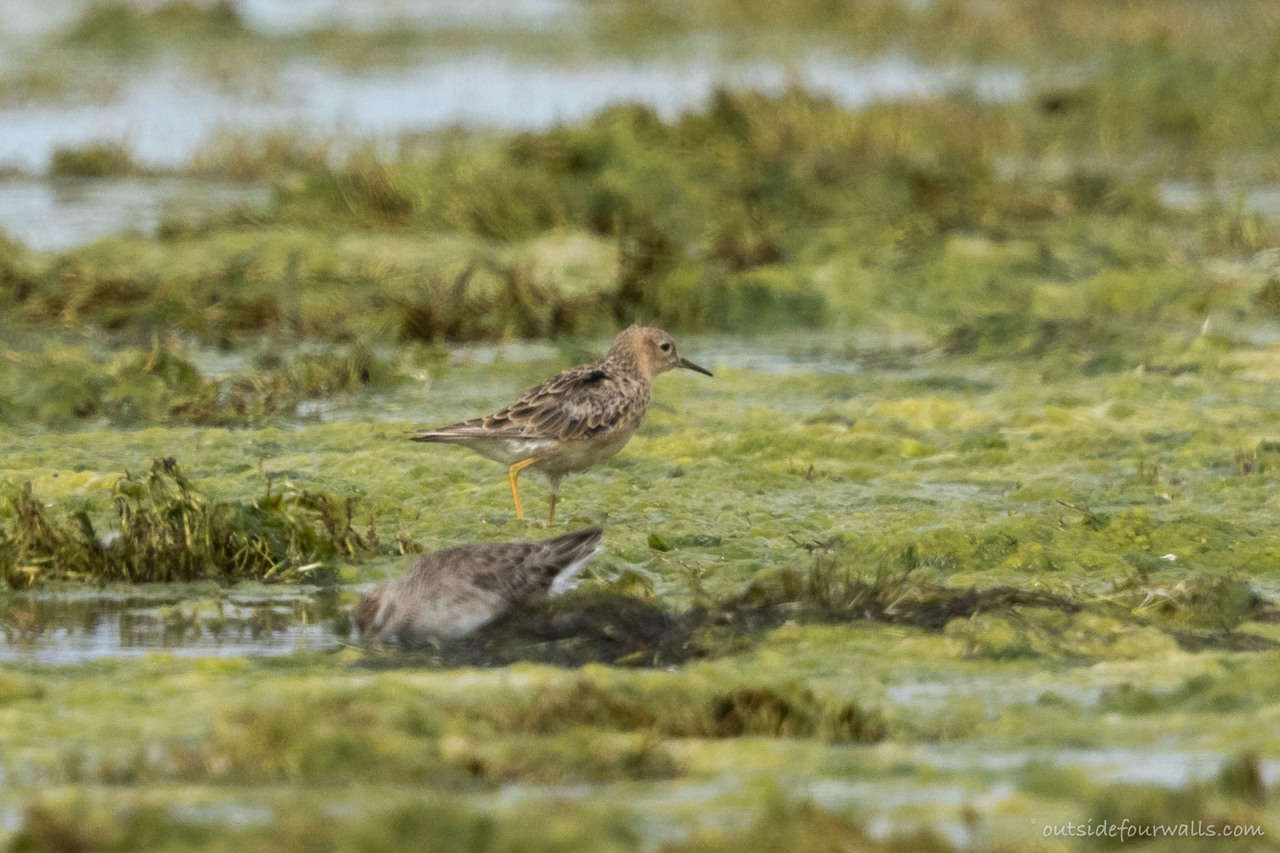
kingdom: Animalia
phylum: Chordata
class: Aves
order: Charadriiformes
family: Scolopacidae
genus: Calidris
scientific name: Calidris subruficollis
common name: Buff-breasted sandpiper
